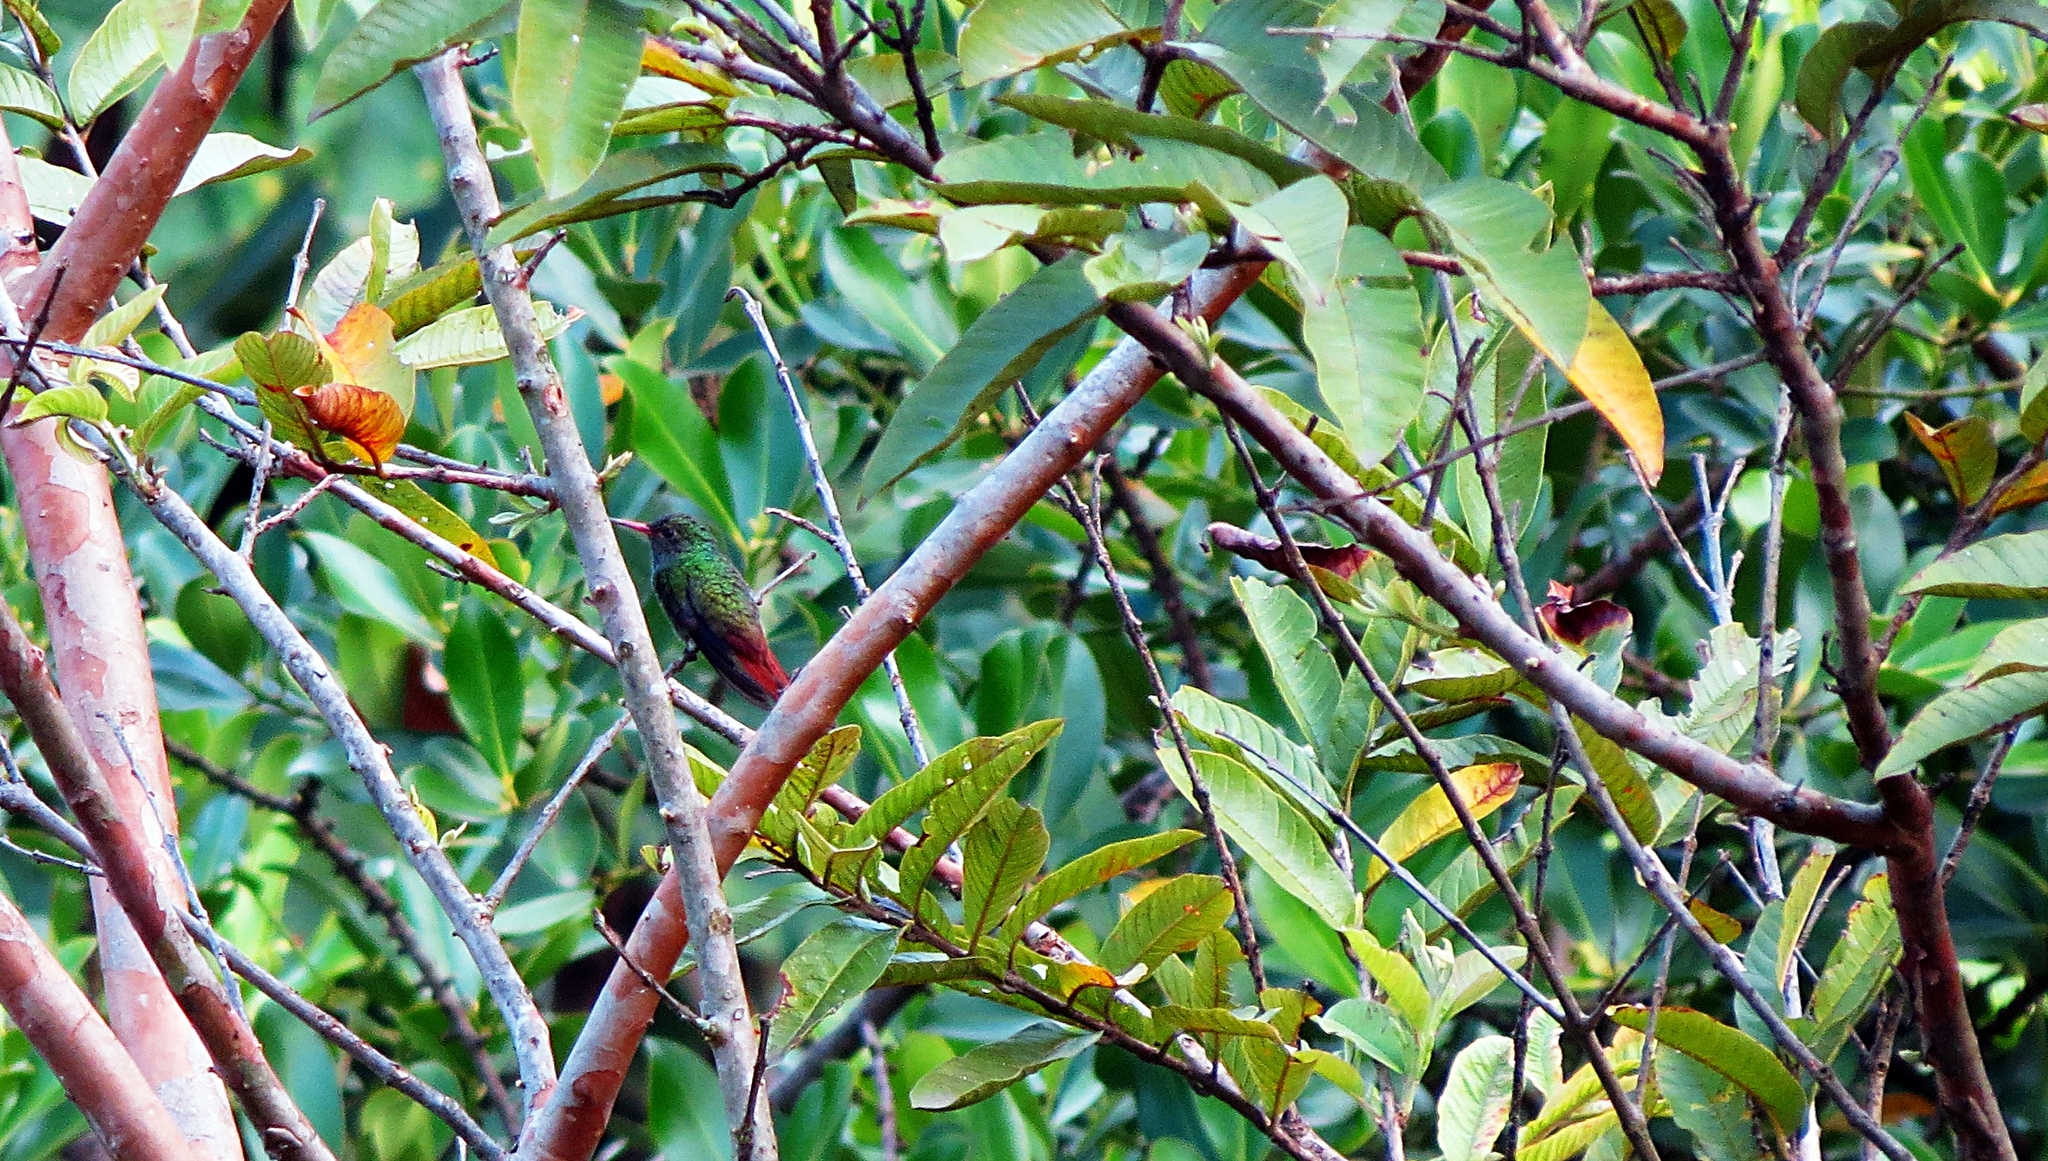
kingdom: Animalia
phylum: Chordata
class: Aves
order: Apodiformes
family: Trochilidae
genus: Amazilia
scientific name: Amazilia tzacatl
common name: Rufous-tailed hummingbird
